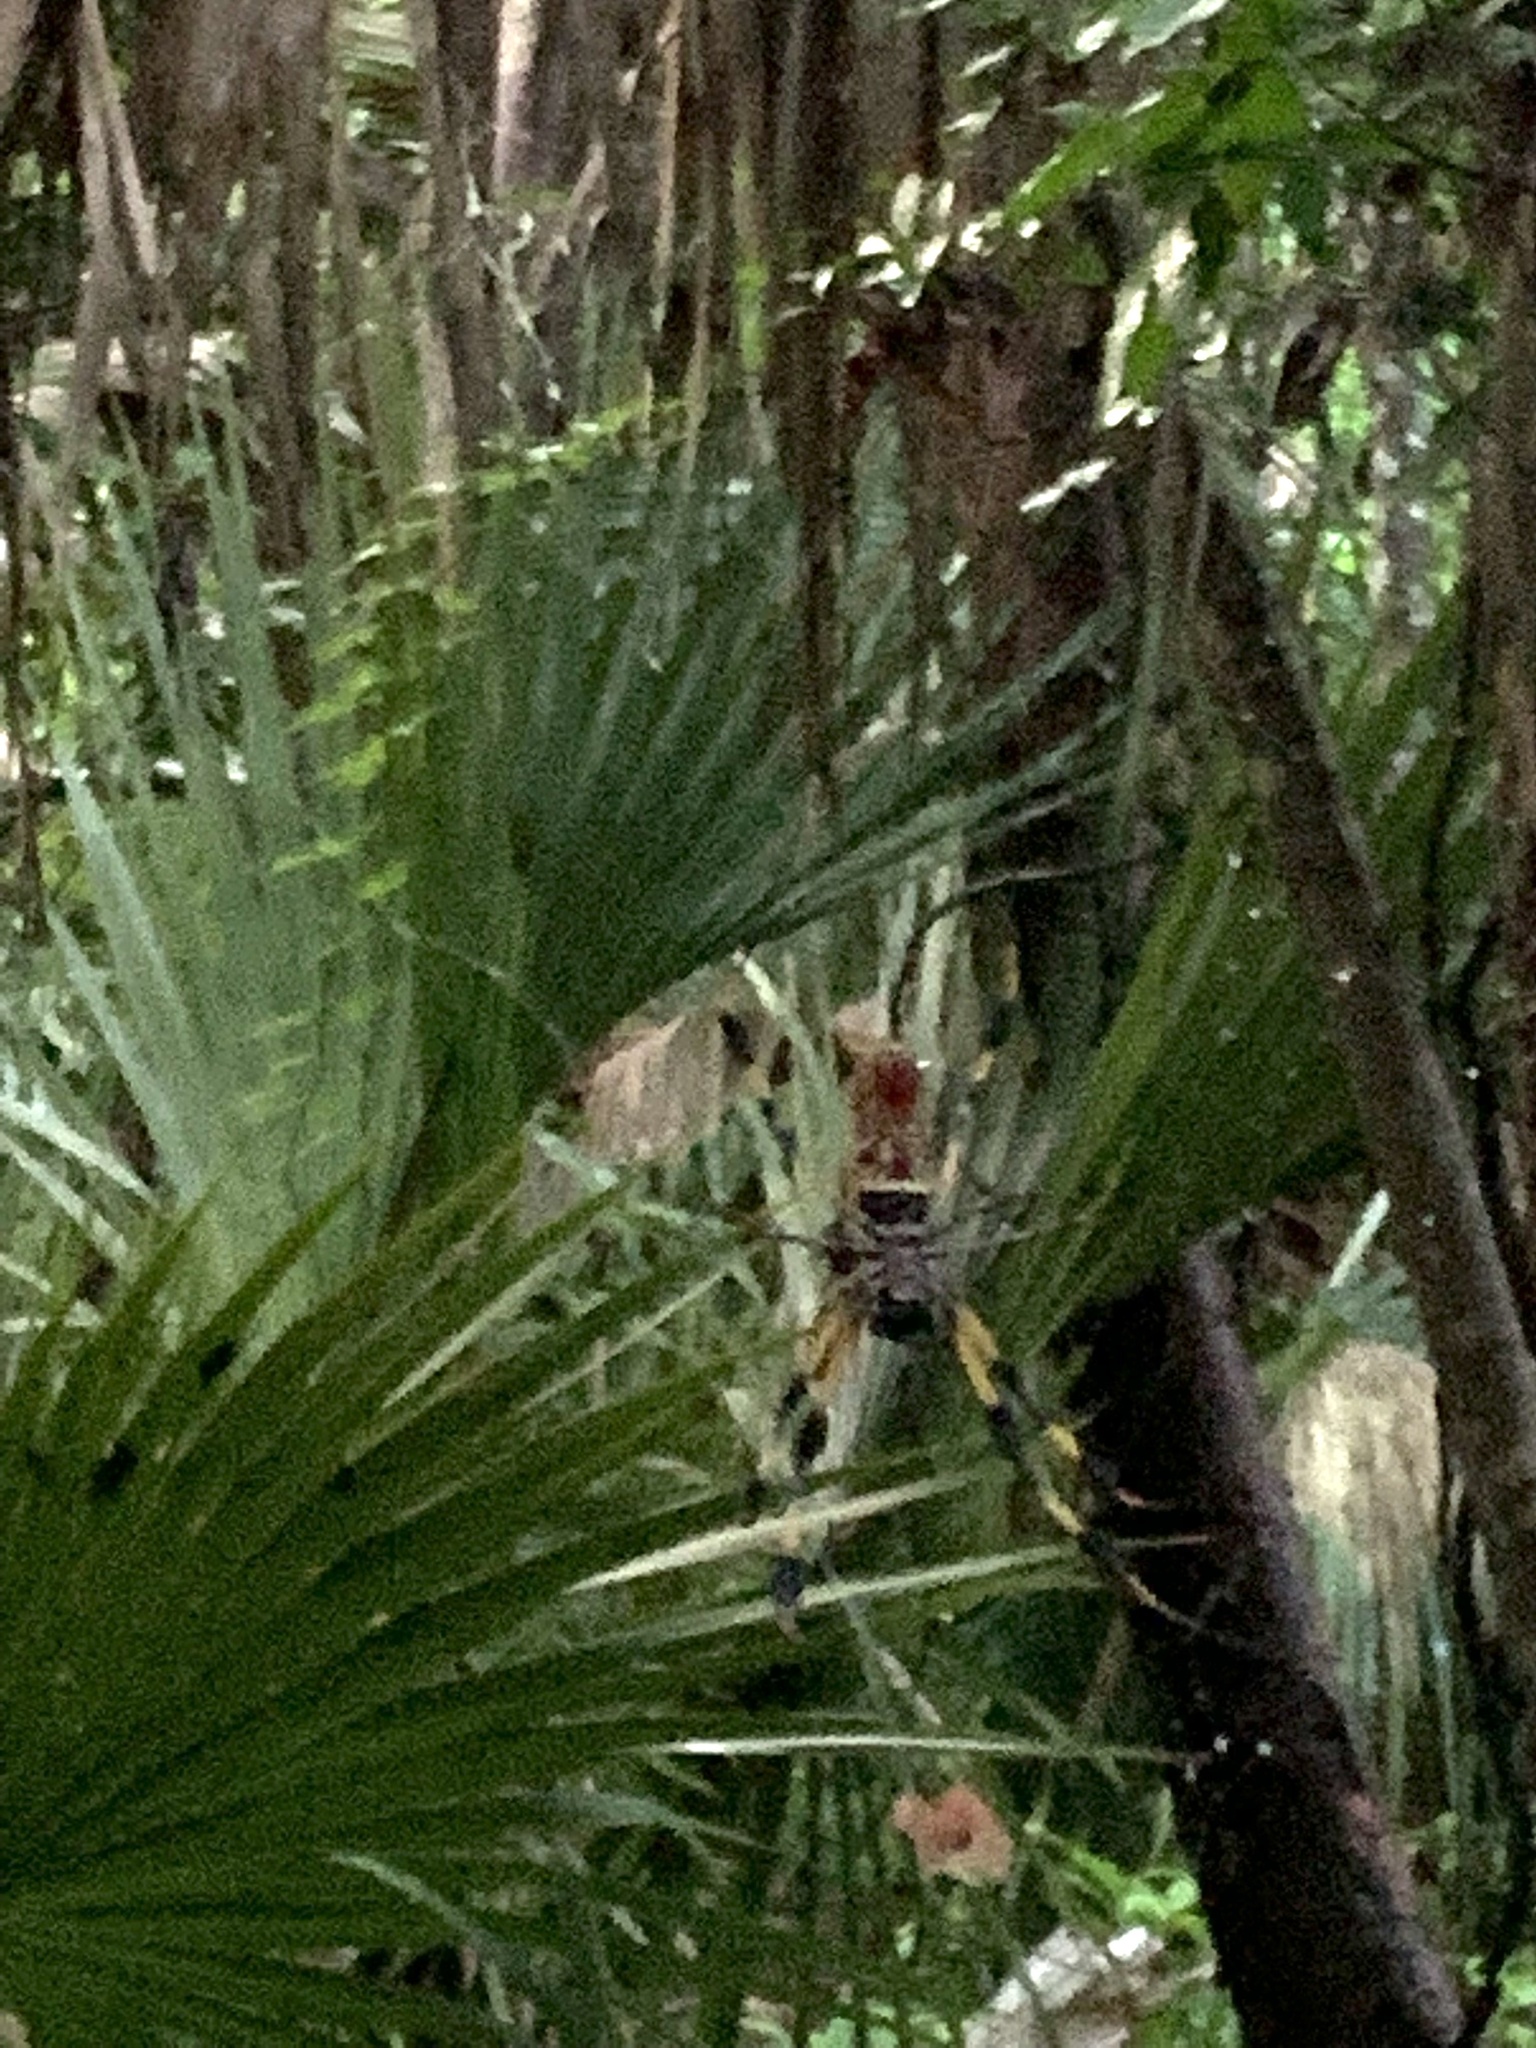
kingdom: Animalia
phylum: Arthropoda
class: Arachnida
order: Araneae
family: Araneidae
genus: Trichonephila
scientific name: Trichonephila clavipes
